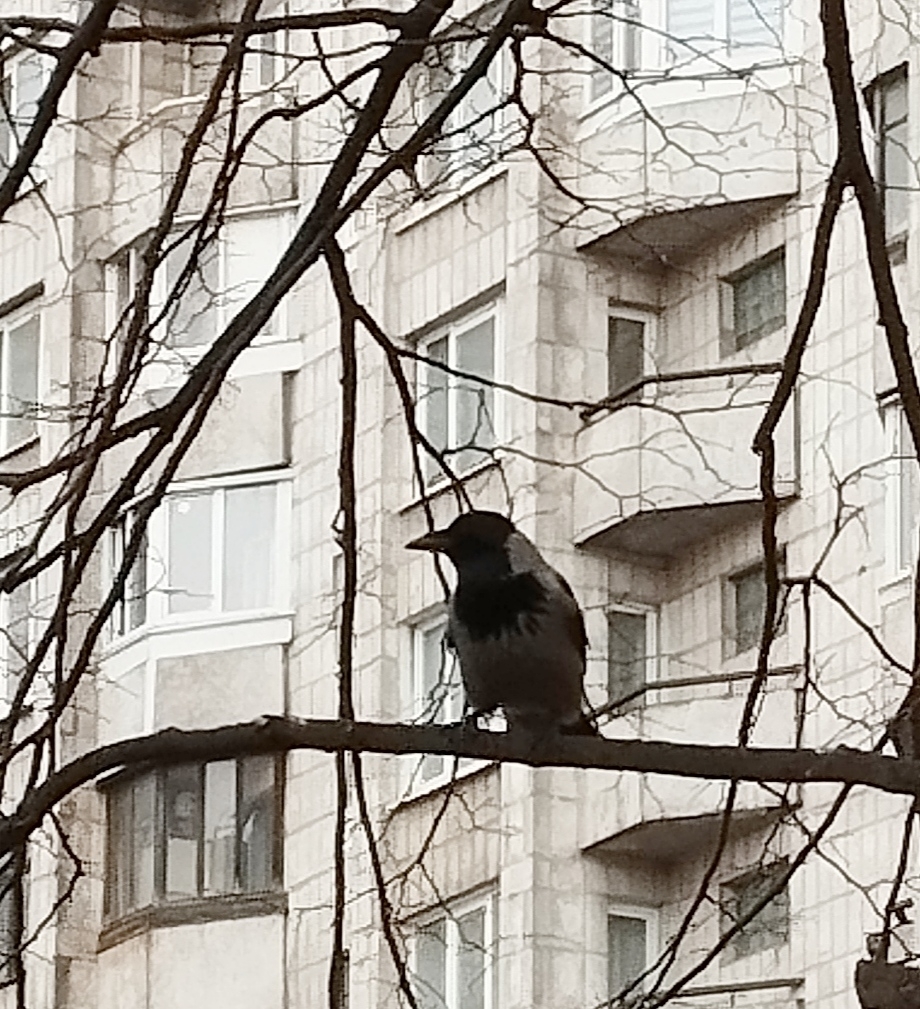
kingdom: Animalia
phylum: Chordata
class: Aves
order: Passeriformes
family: Corvidae
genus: Corvus
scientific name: Corvus cornix
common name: Hooded crow
